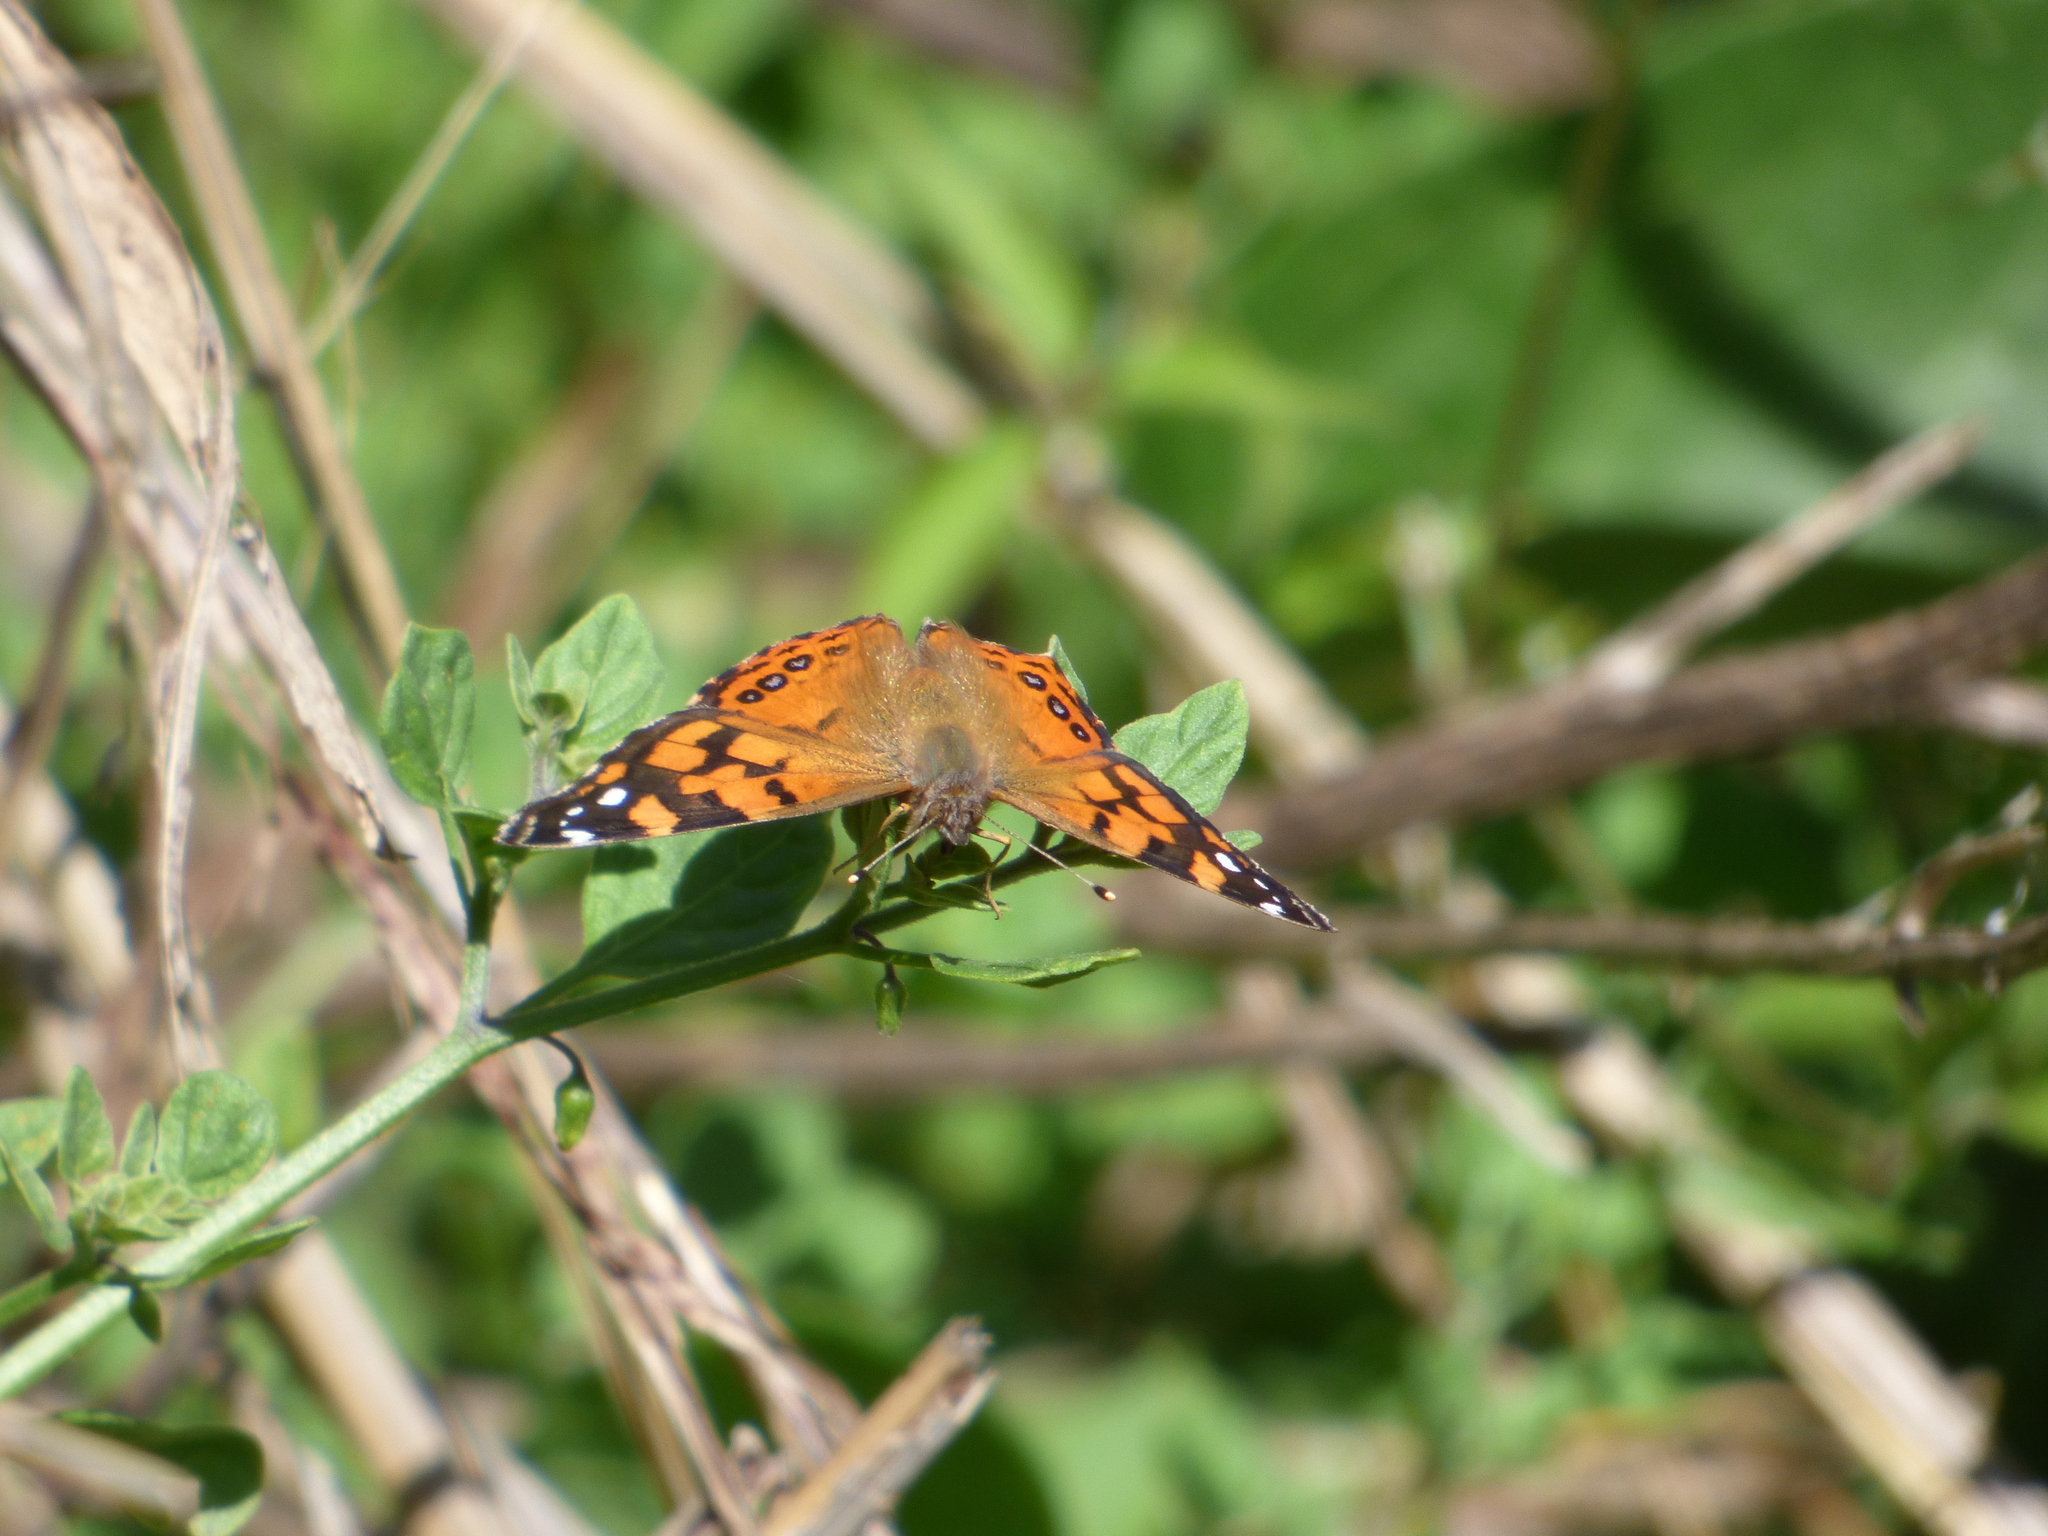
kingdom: Animalia
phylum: Arthropoda
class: Insecta
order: Lepidoptera
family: Nymphalidae
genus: Vanessa
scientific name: Vanessa carye
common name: Subtropical lady
